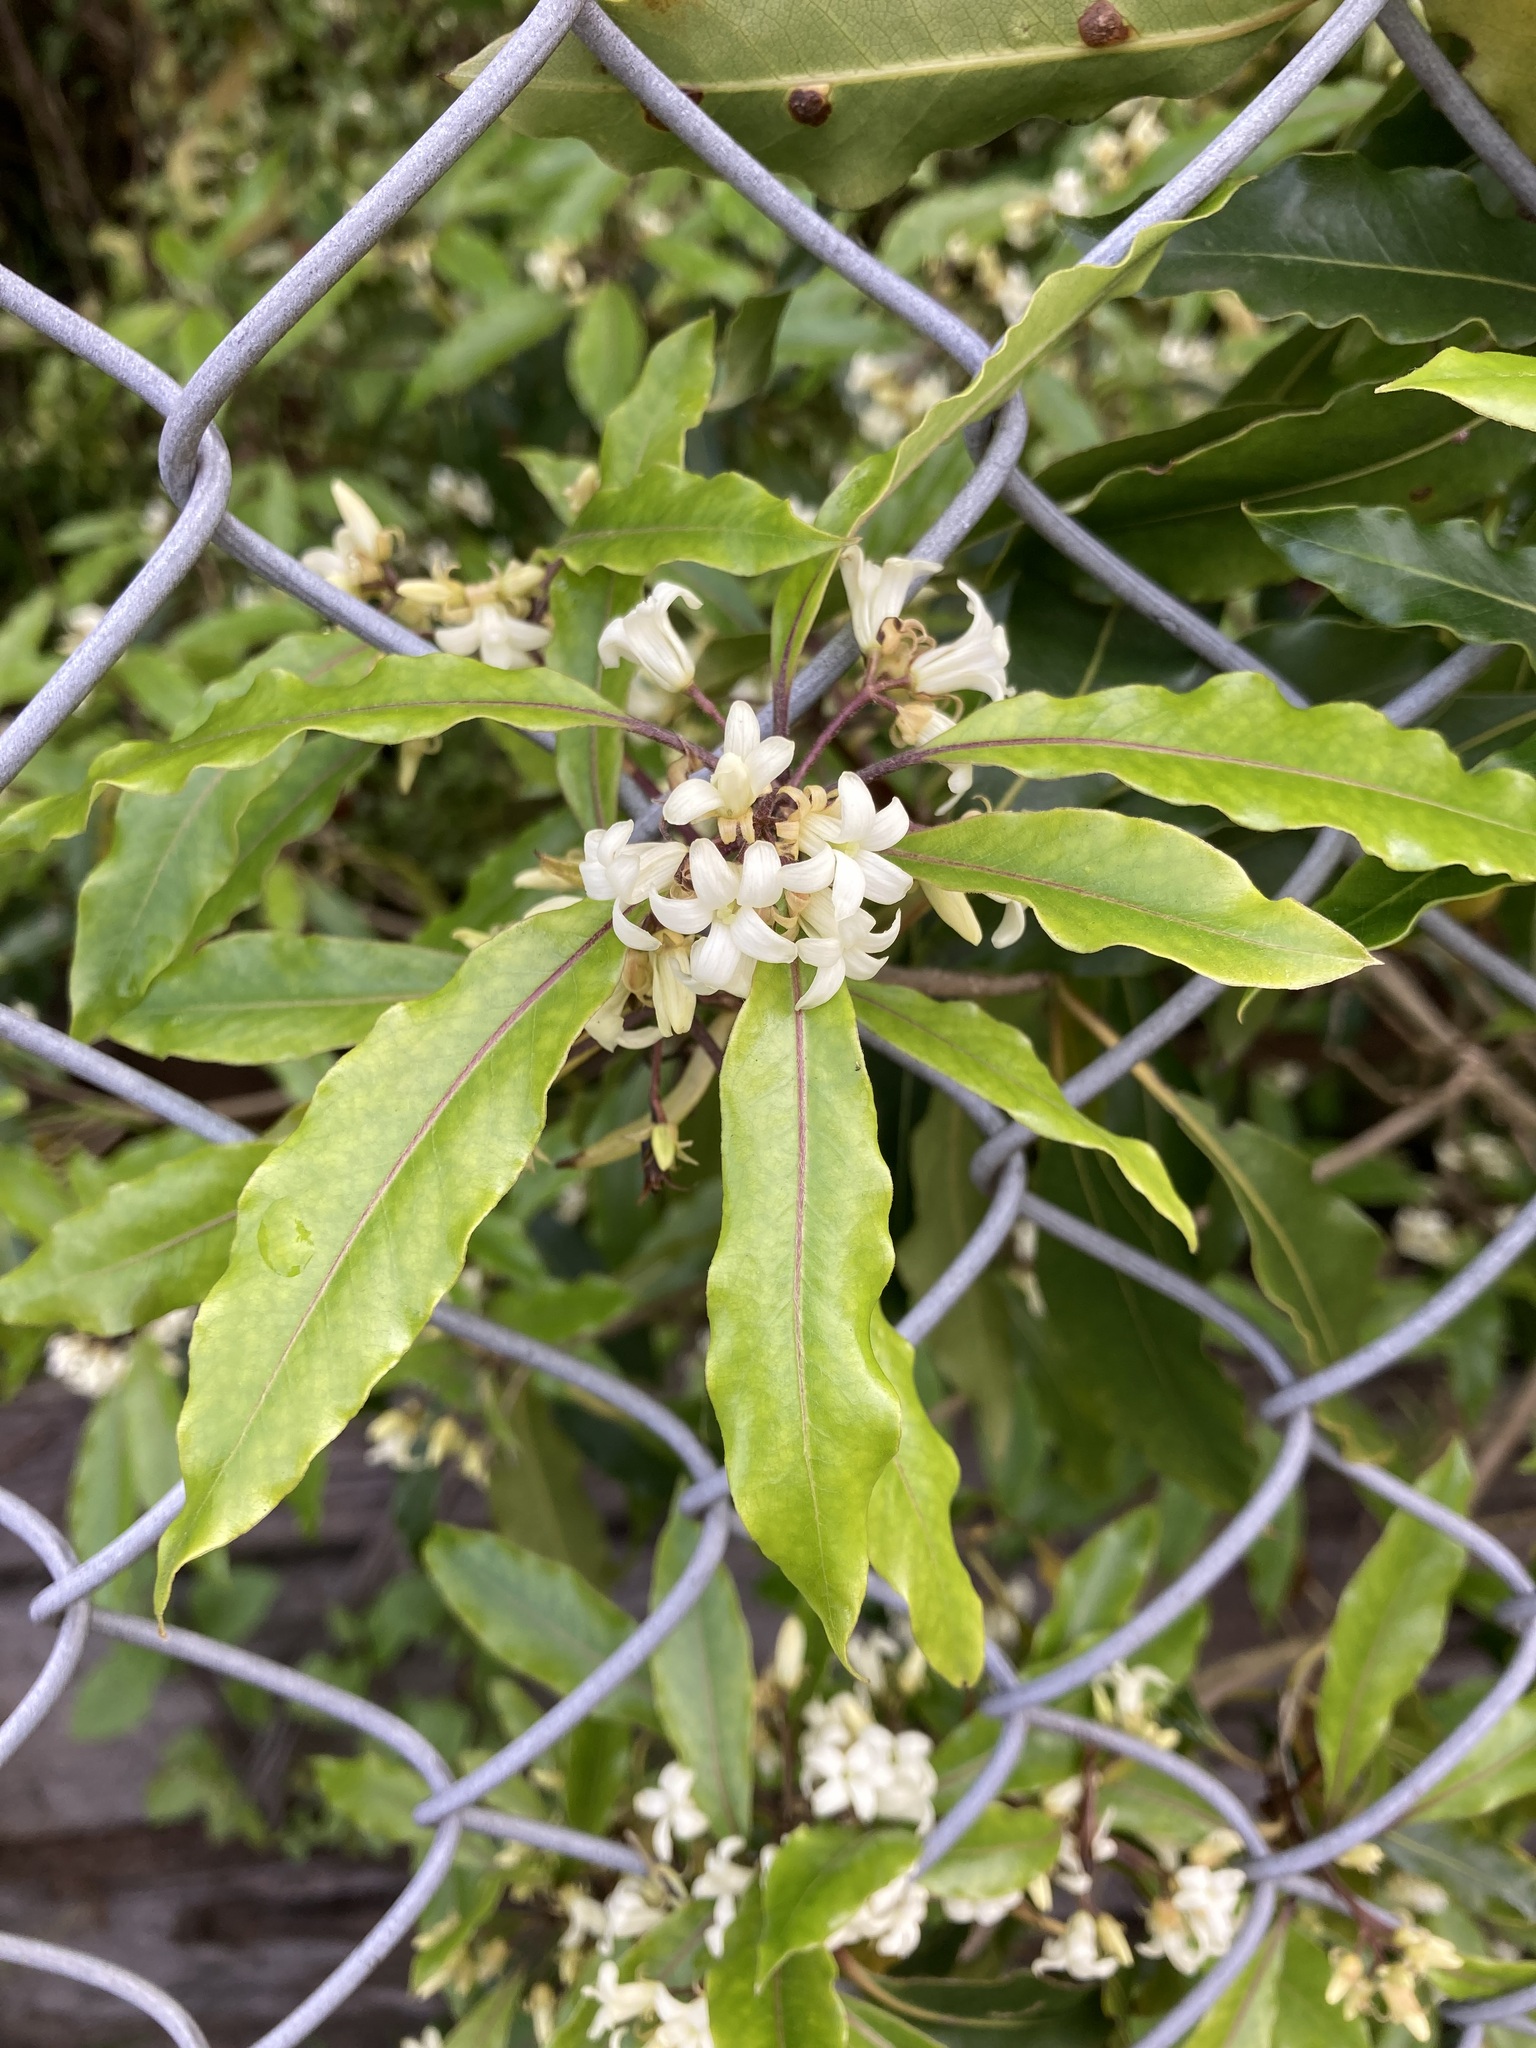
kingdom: Plantae
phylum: Tracheophyta
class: Magnoliopsida
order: Apiales
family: Pittosporaceae
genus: Pittosporum
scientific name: Pittosporum undulatum
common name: Australian cheesewood
